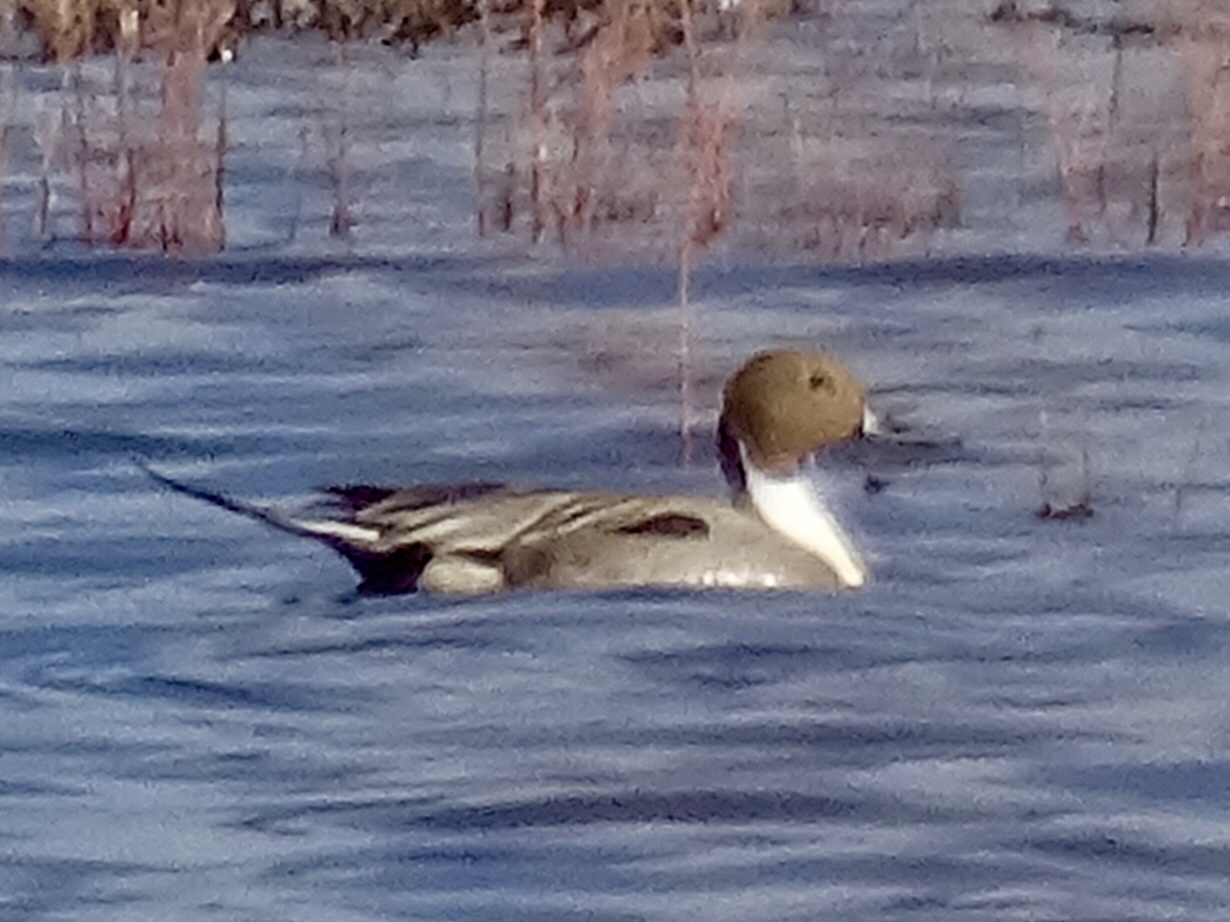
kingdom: Animalia
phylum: Chordata
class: Aves
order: Anseriformes
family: Anatidae
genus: Anas
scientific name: Anas acuta
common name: Northern pintail
